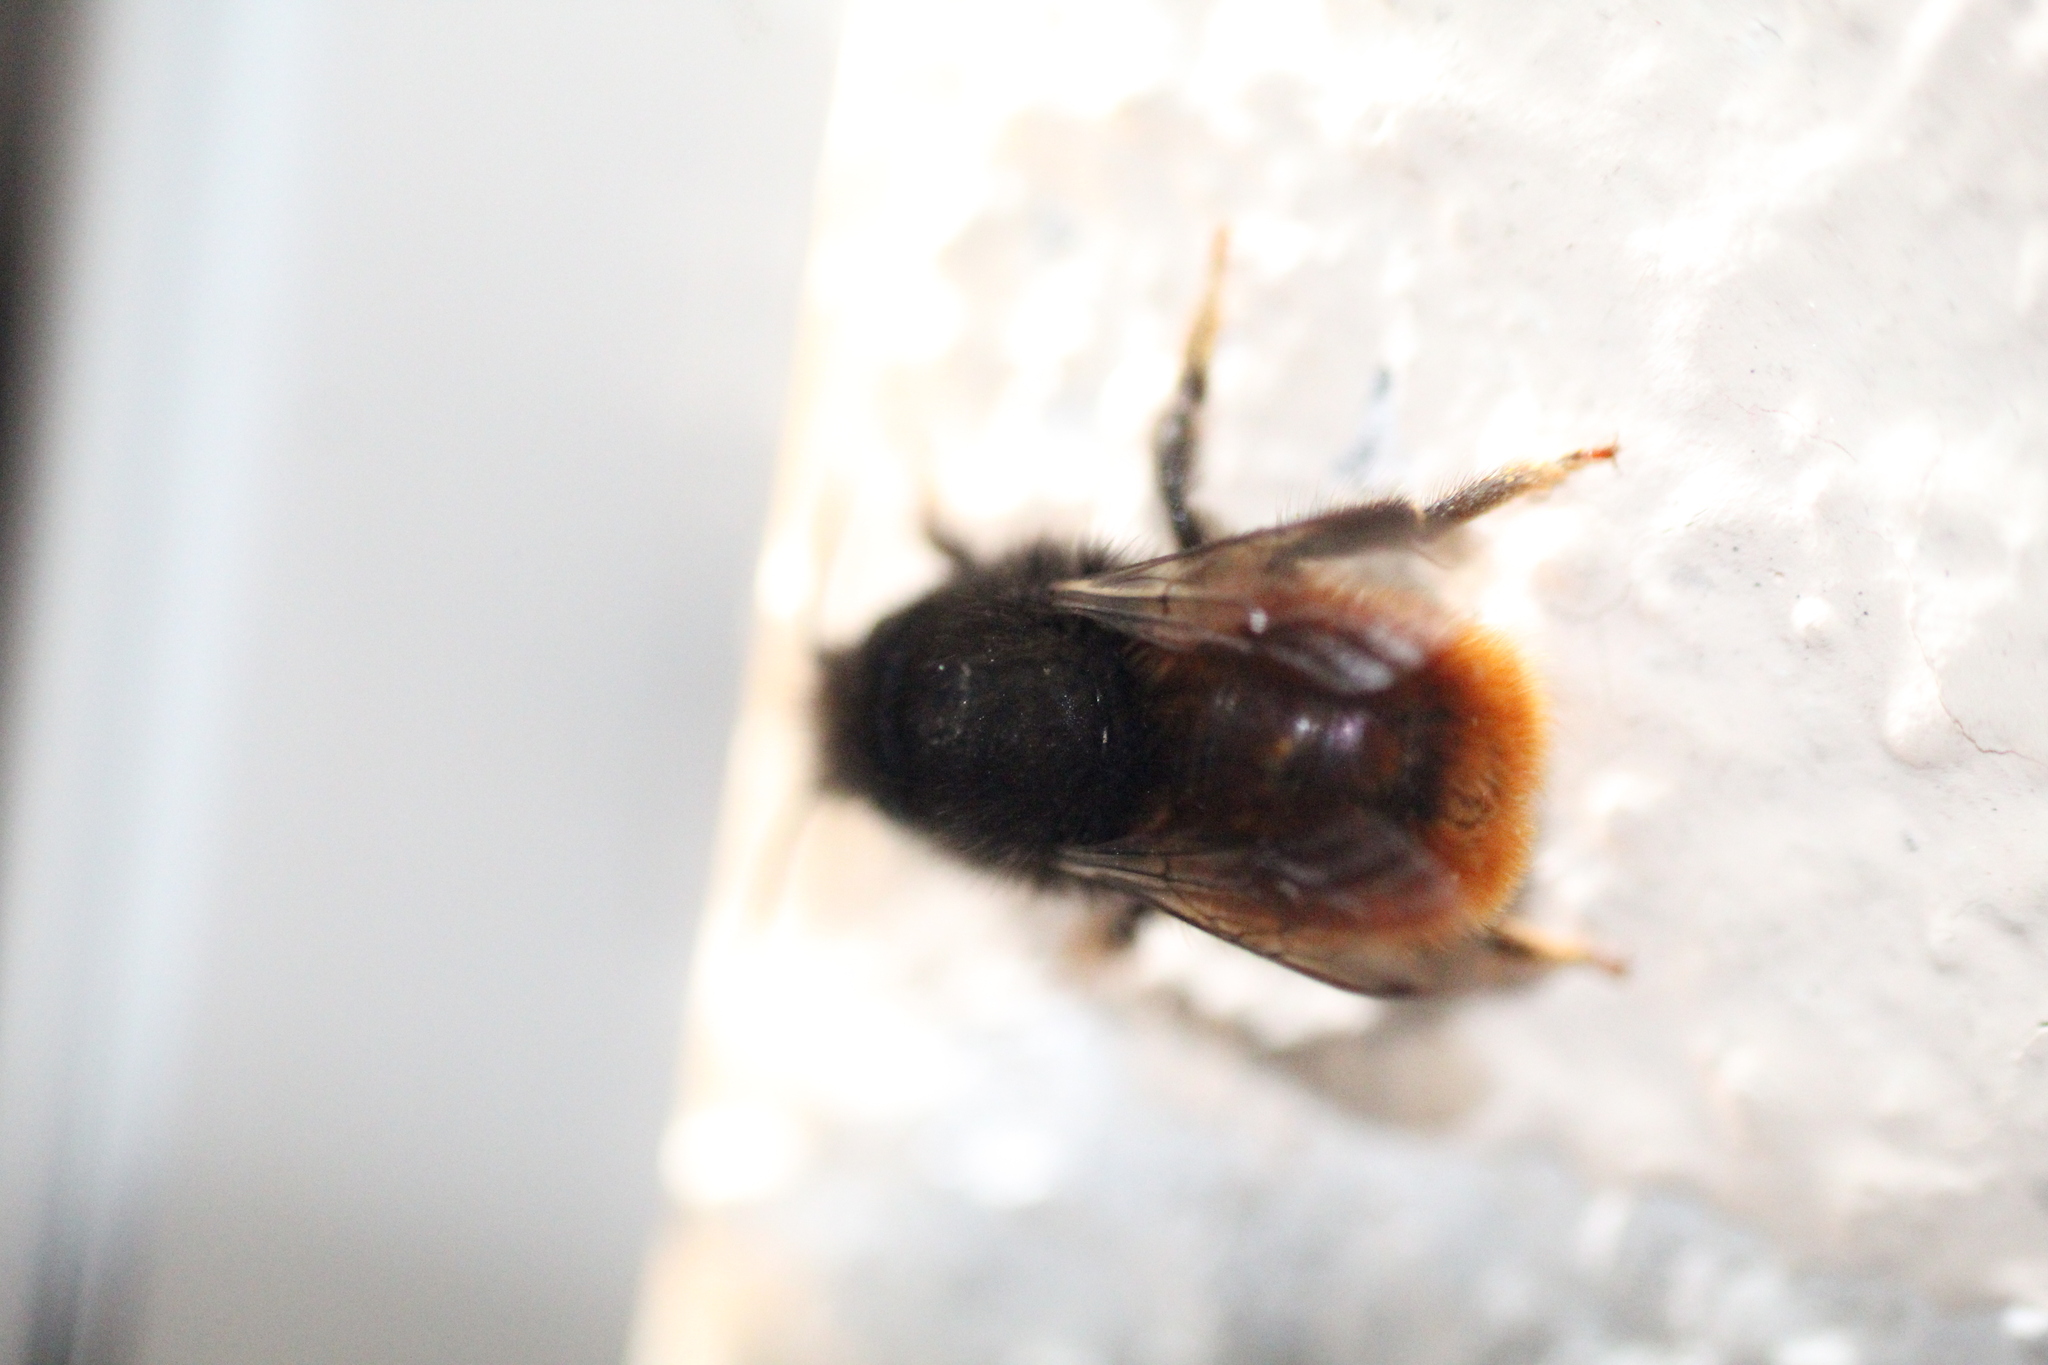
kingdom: Animalia
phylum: Arthropoda
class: Insecta
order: Hymenoptera
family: Megachilidae
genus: Osmia
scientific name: Osmia cornuta
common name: Mason bee
